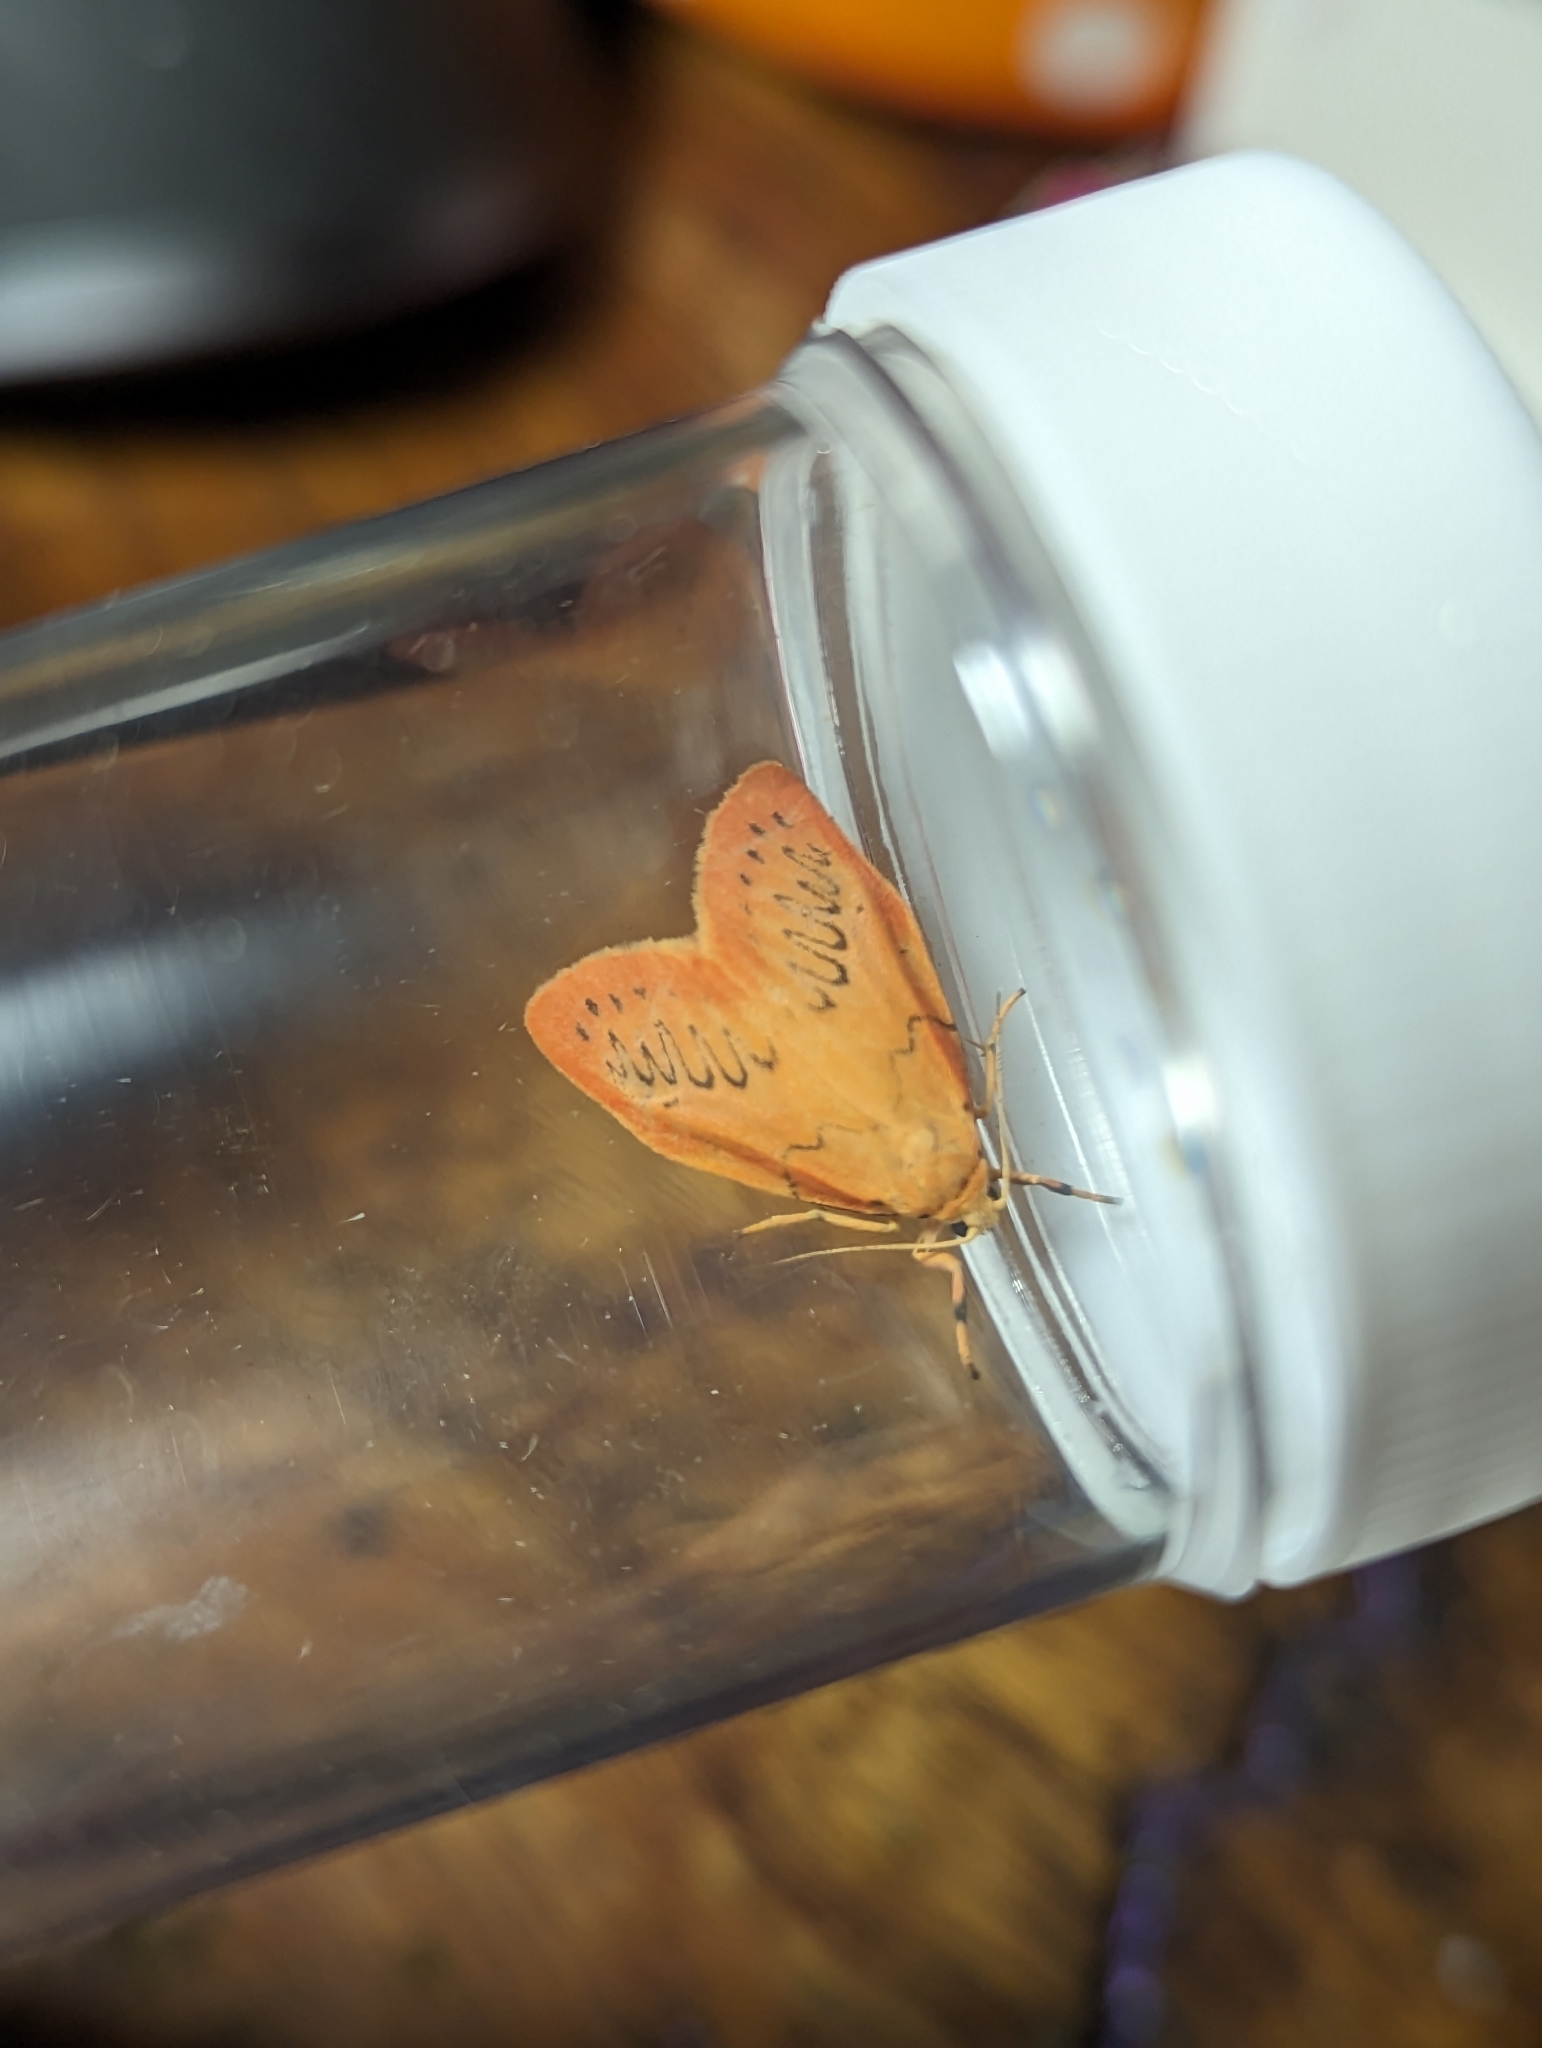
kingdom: Animalia
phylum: Arthropoda
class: Insecta
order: Lepidoptera
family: Erebidae
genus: Miltochrista
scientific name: Miltochrista miniata
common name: Rosy footman
